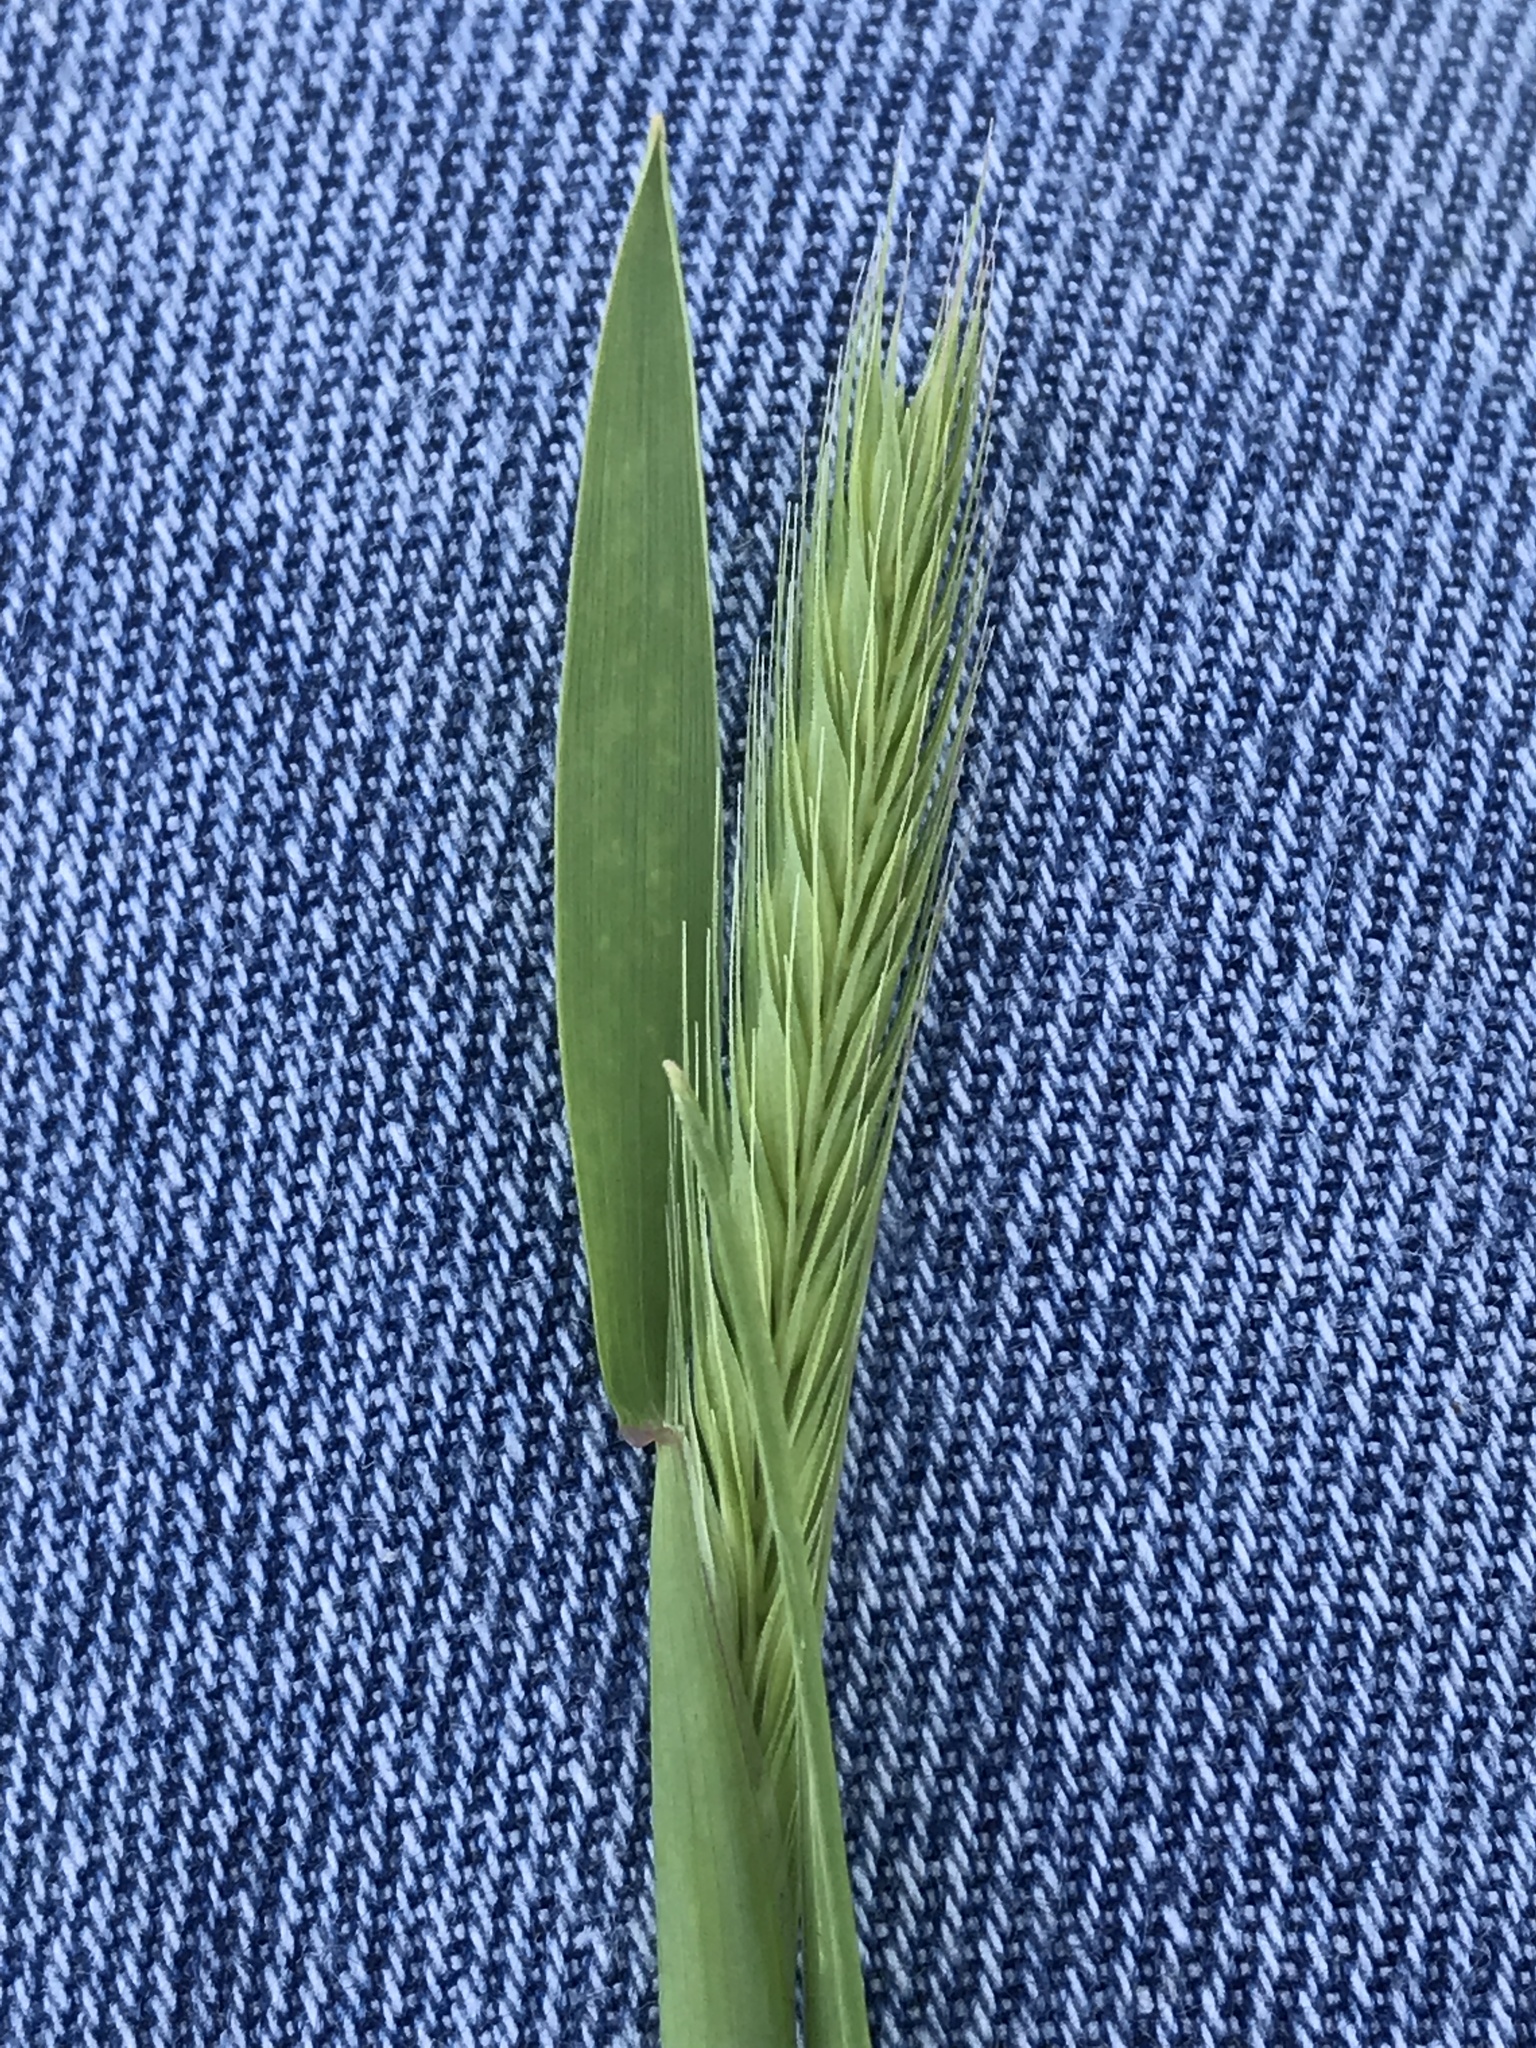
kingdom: Plantae
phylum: Tracheophyta
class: Liliopsida
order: Poales
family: Poaceae
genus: Hordeum
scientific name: Hordeum pusillum
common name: Little barley
